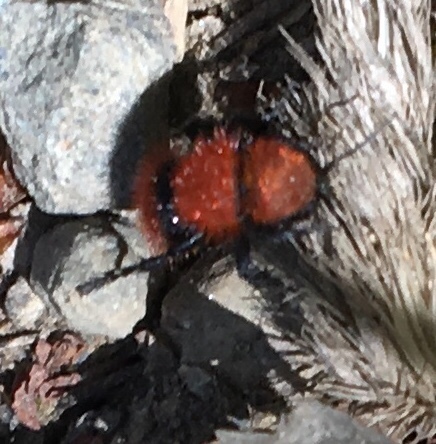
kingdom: Animalia
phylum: Arthropoda
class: Insecta
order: Hymenoptera
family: Mutillidae
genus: Dasymutilla
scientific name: Dasymutilla
